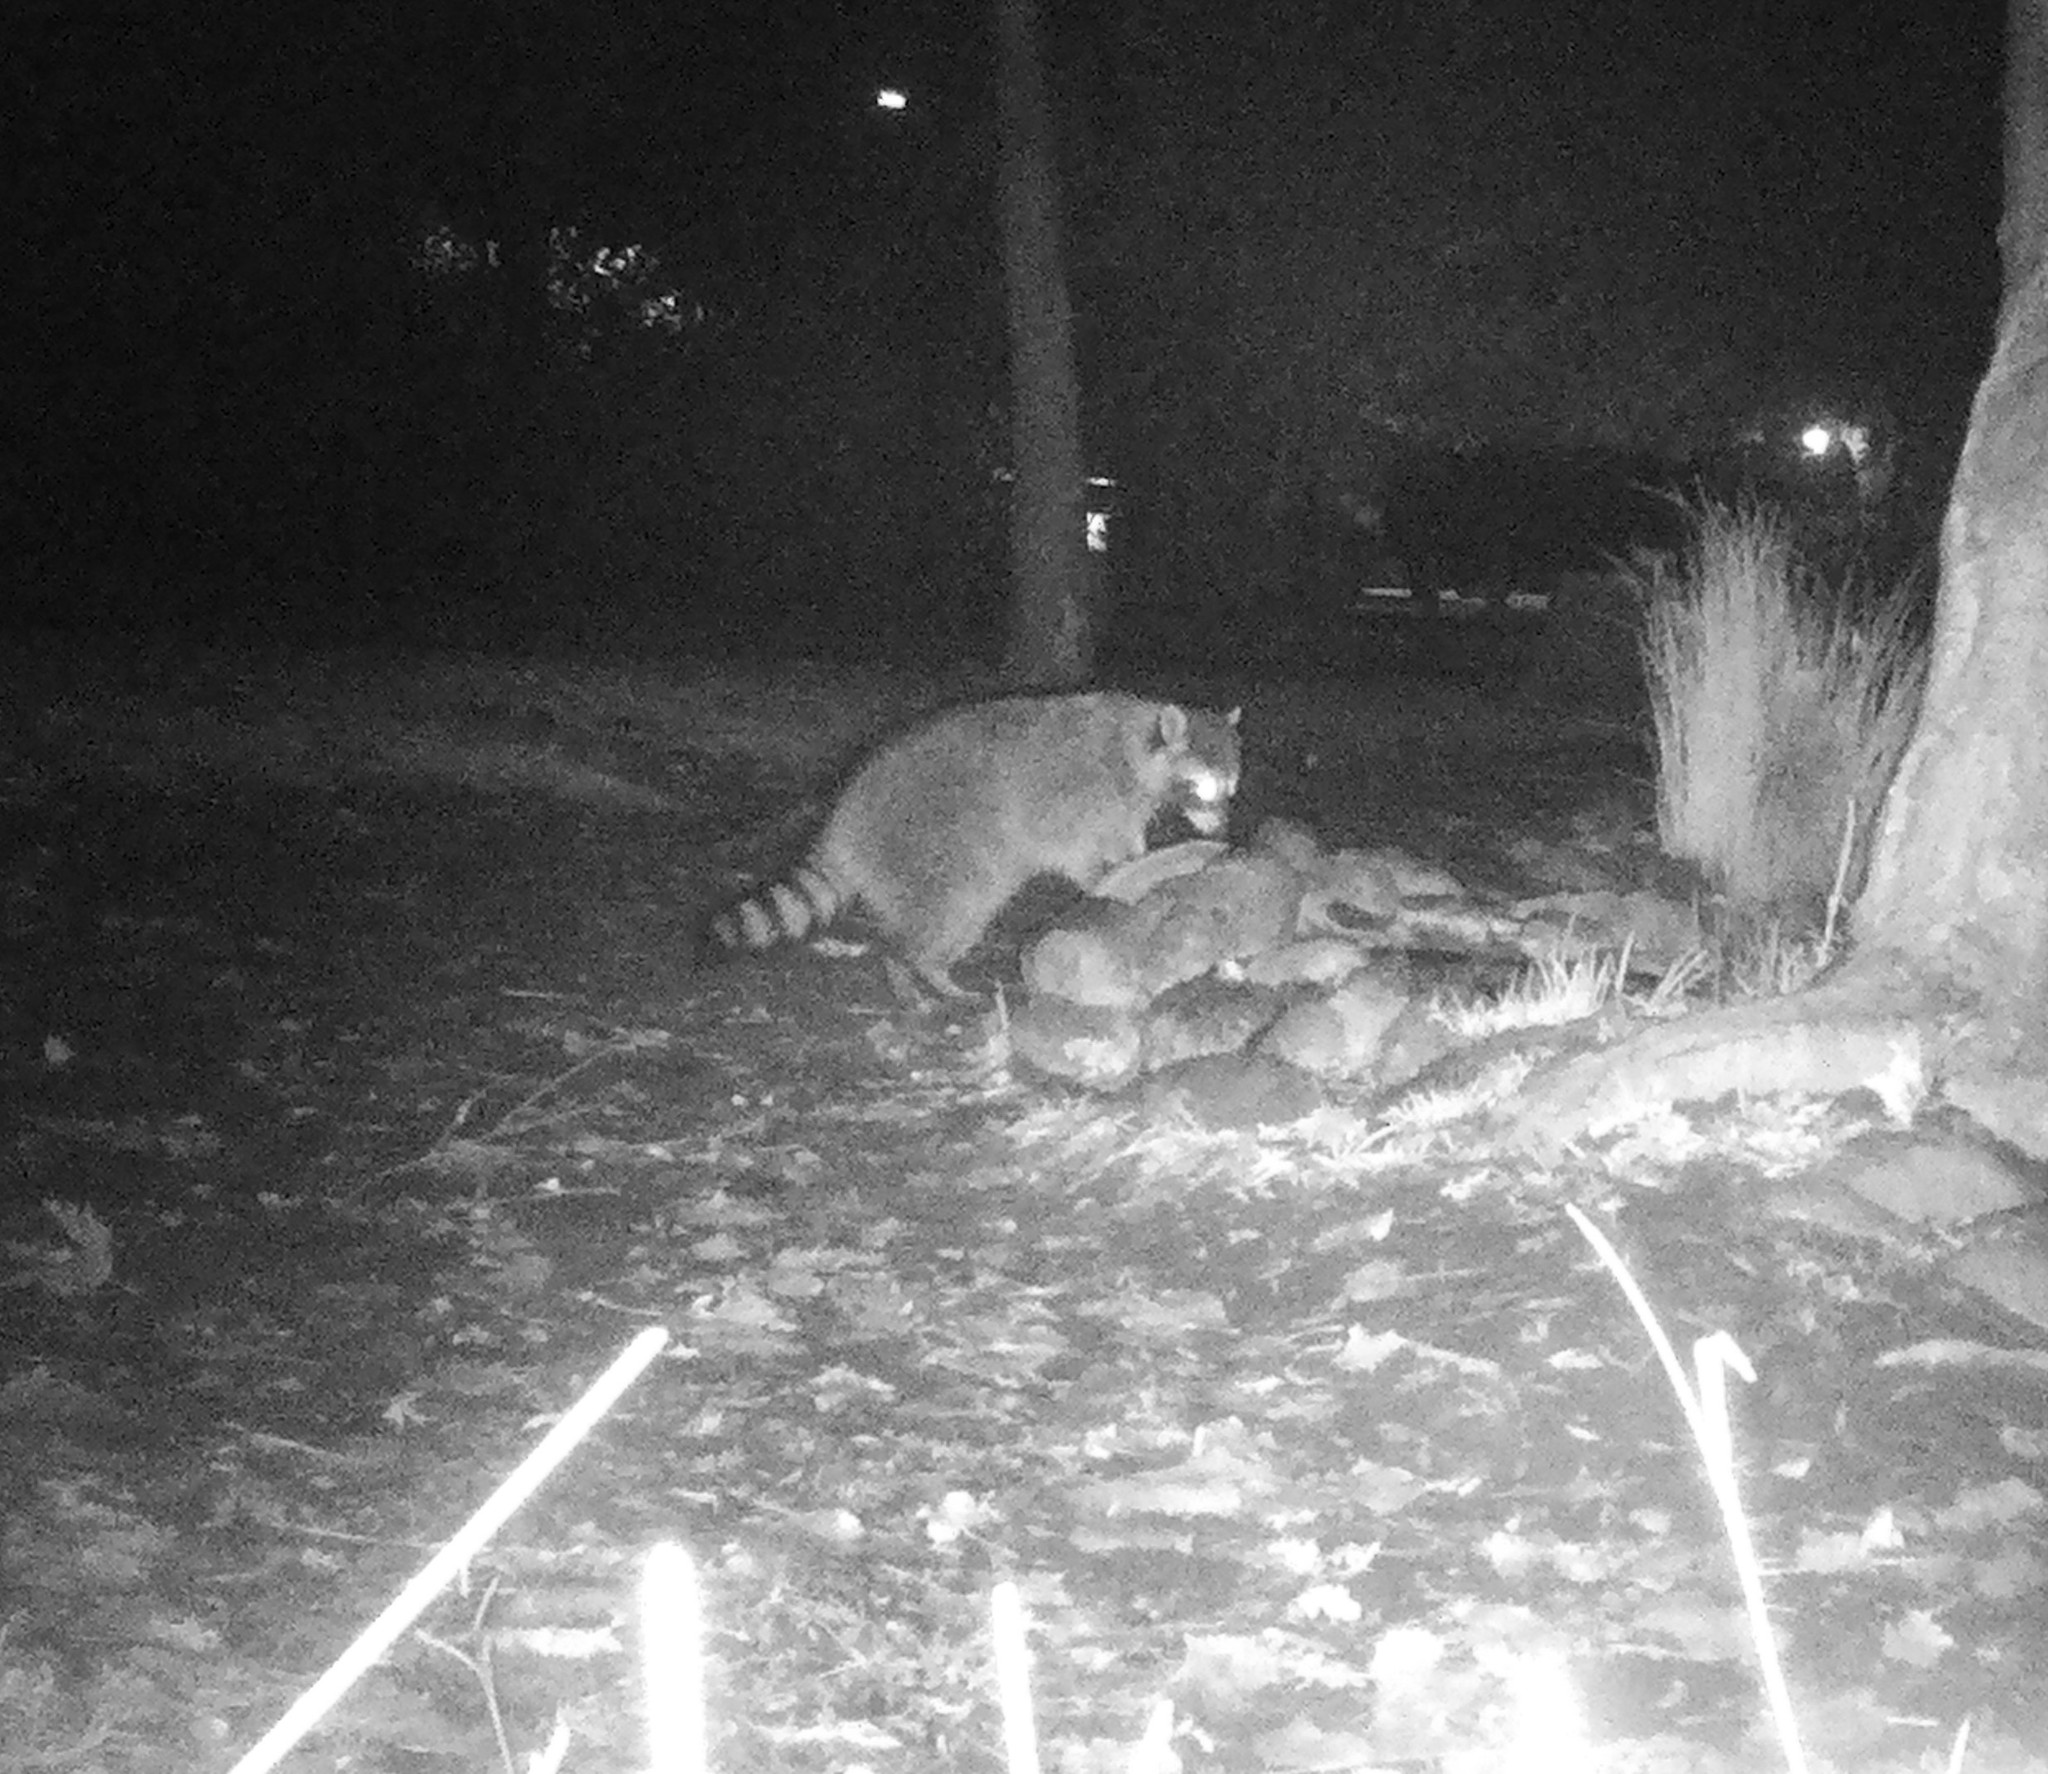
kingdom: Animalia
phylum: Chordata
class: Mammalia
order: Carnivora
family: Procyonidae
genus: Procyon
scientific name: Procyon lotor
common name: Raccoon
